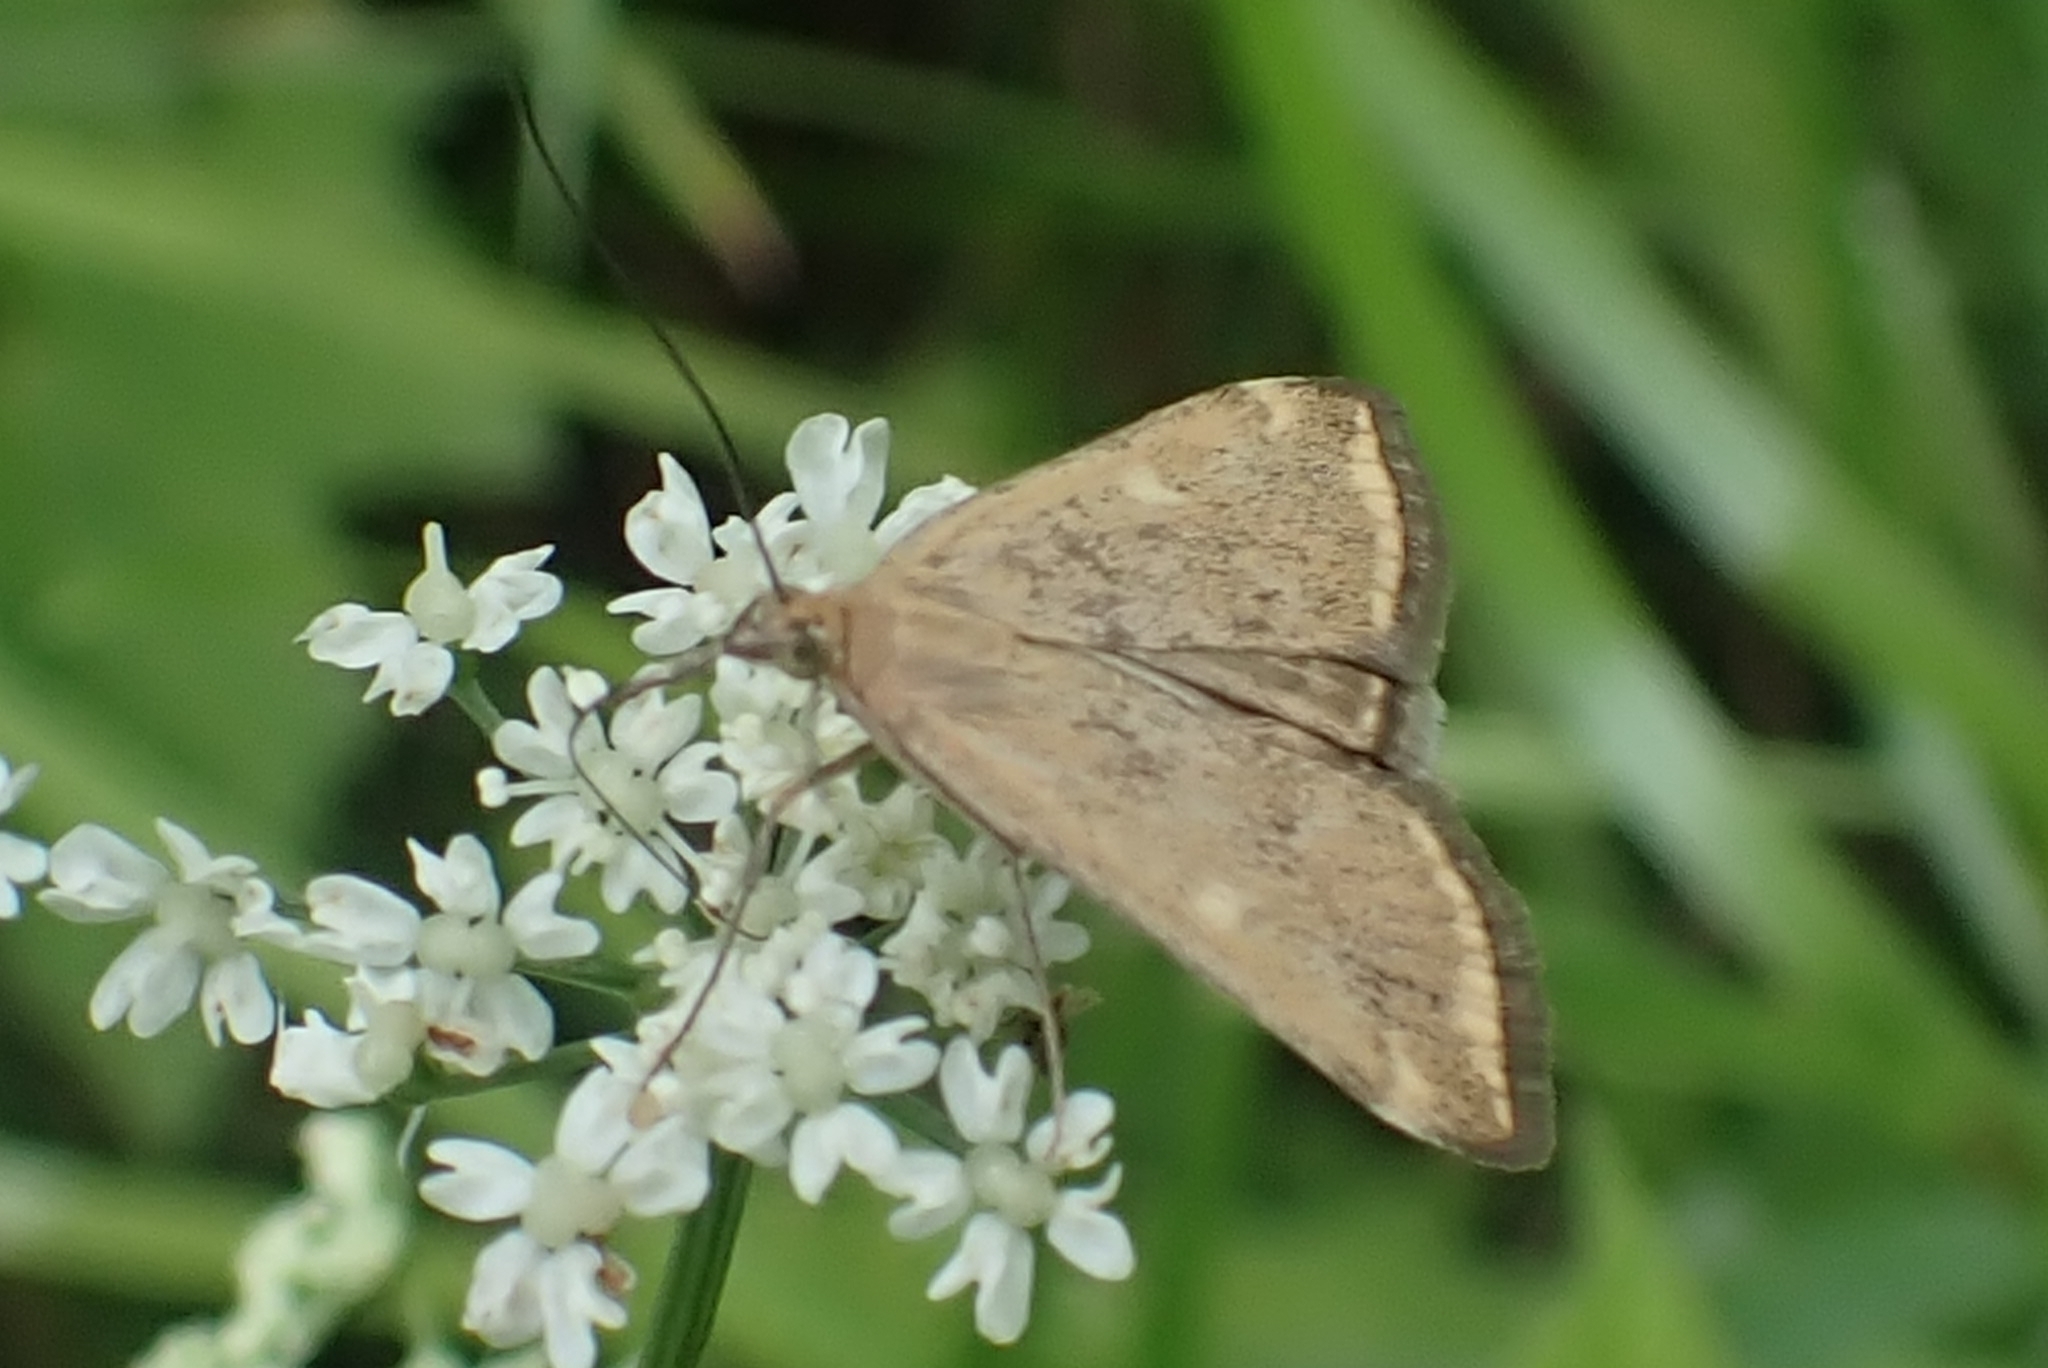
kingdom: Animalia
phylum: Arthropoda
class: Insecta
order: Lepidoptera
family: Crambidae
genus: Loxostege
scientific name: Loxostege sticticalis
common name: Crambid moth
